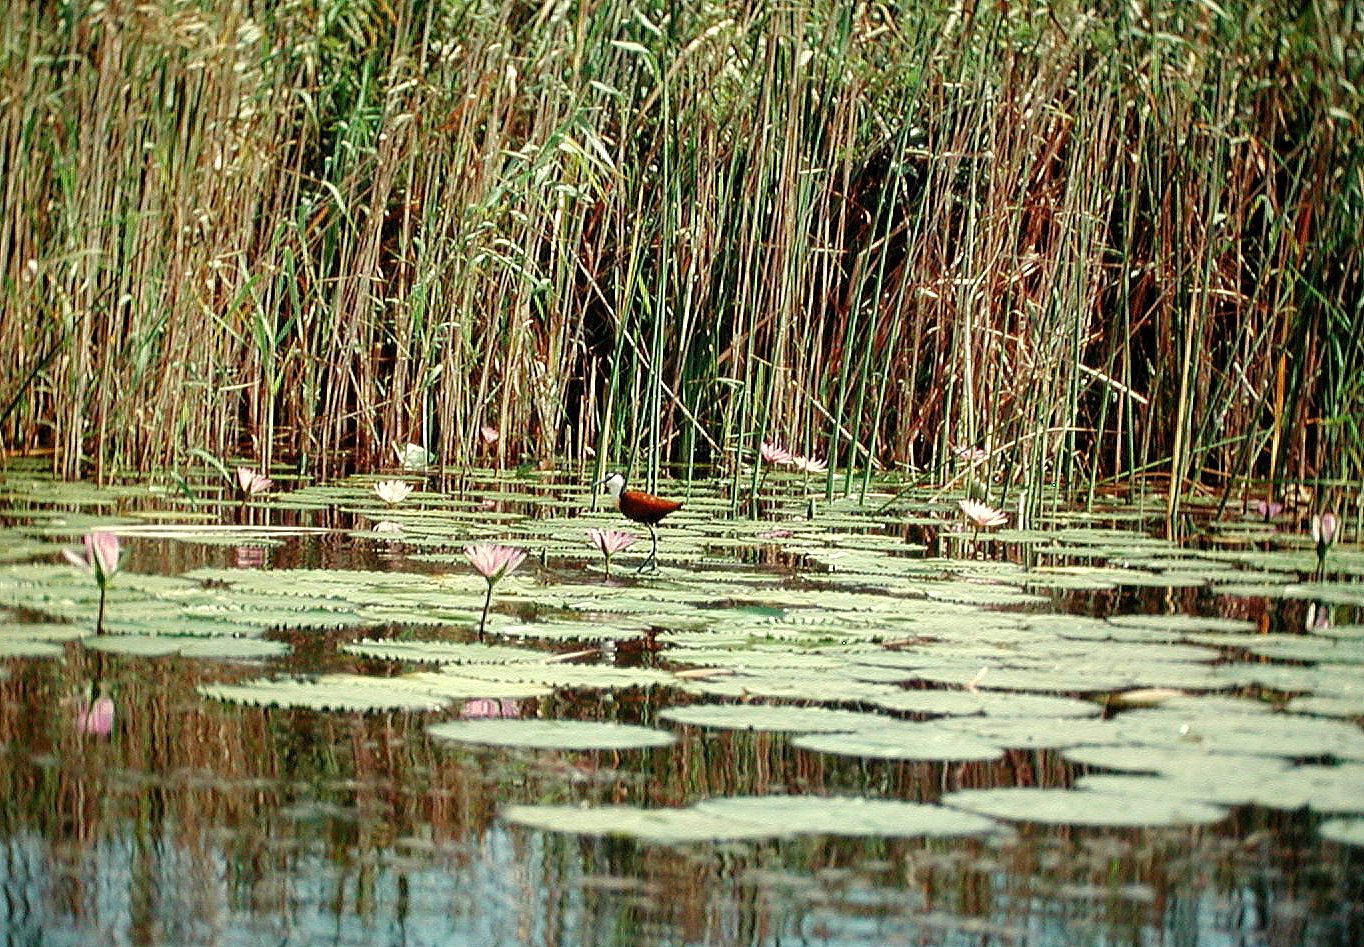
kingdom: Animalia
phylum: Chordata
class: Aves
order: Charadriiformes
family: Jacanidae
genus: Actophilornis
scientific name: Actophilornis africanus
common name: African jacana
